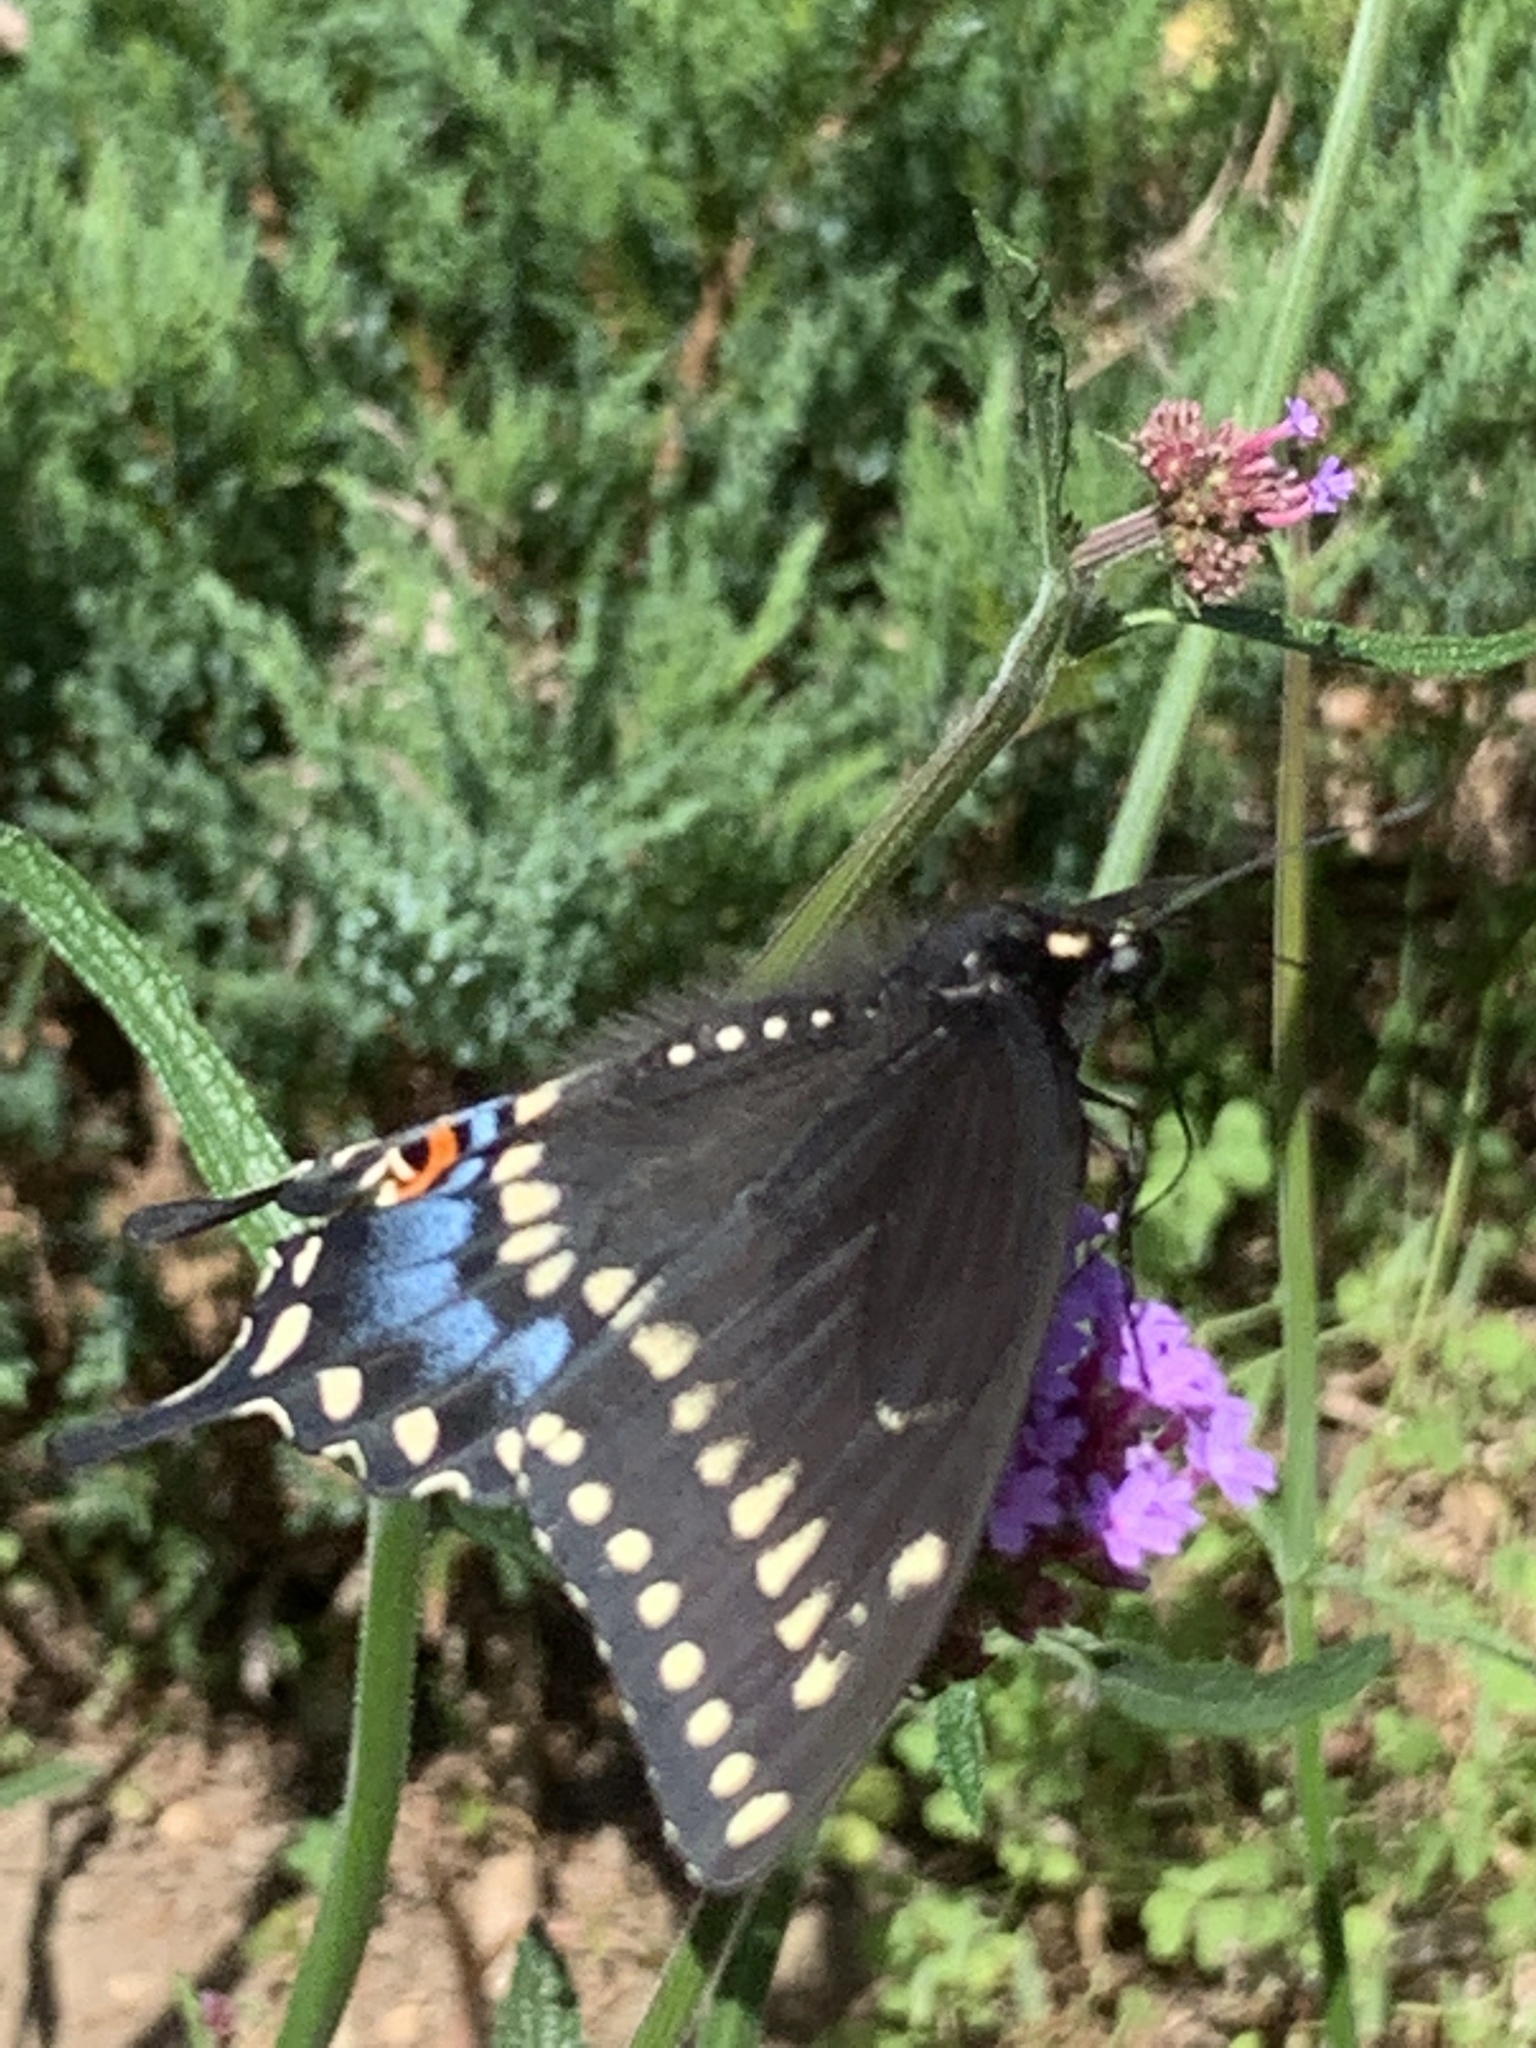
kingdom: Animalia
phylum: Arthropoda
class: Insecta
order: Lepidoptera
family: Papilionidae
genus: Papilio
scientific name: Papilio polyxenes
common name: Black swallowtail
